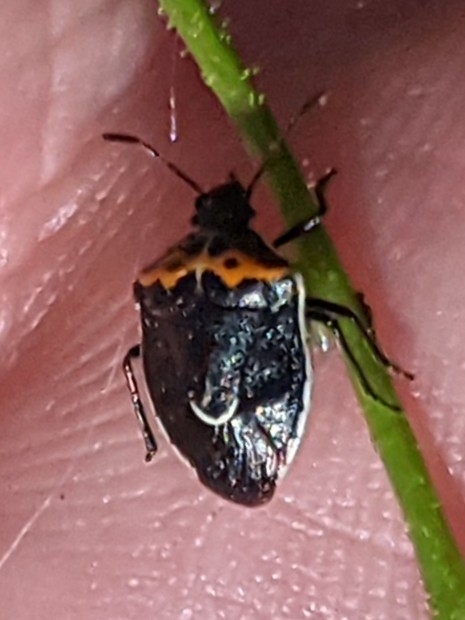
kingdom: Animalia
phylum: Arthropoda
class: Insecta
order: Hemiptera
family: Pentatomidae
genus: Cosmopepla
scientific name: Cosmopepla conspicillaris
